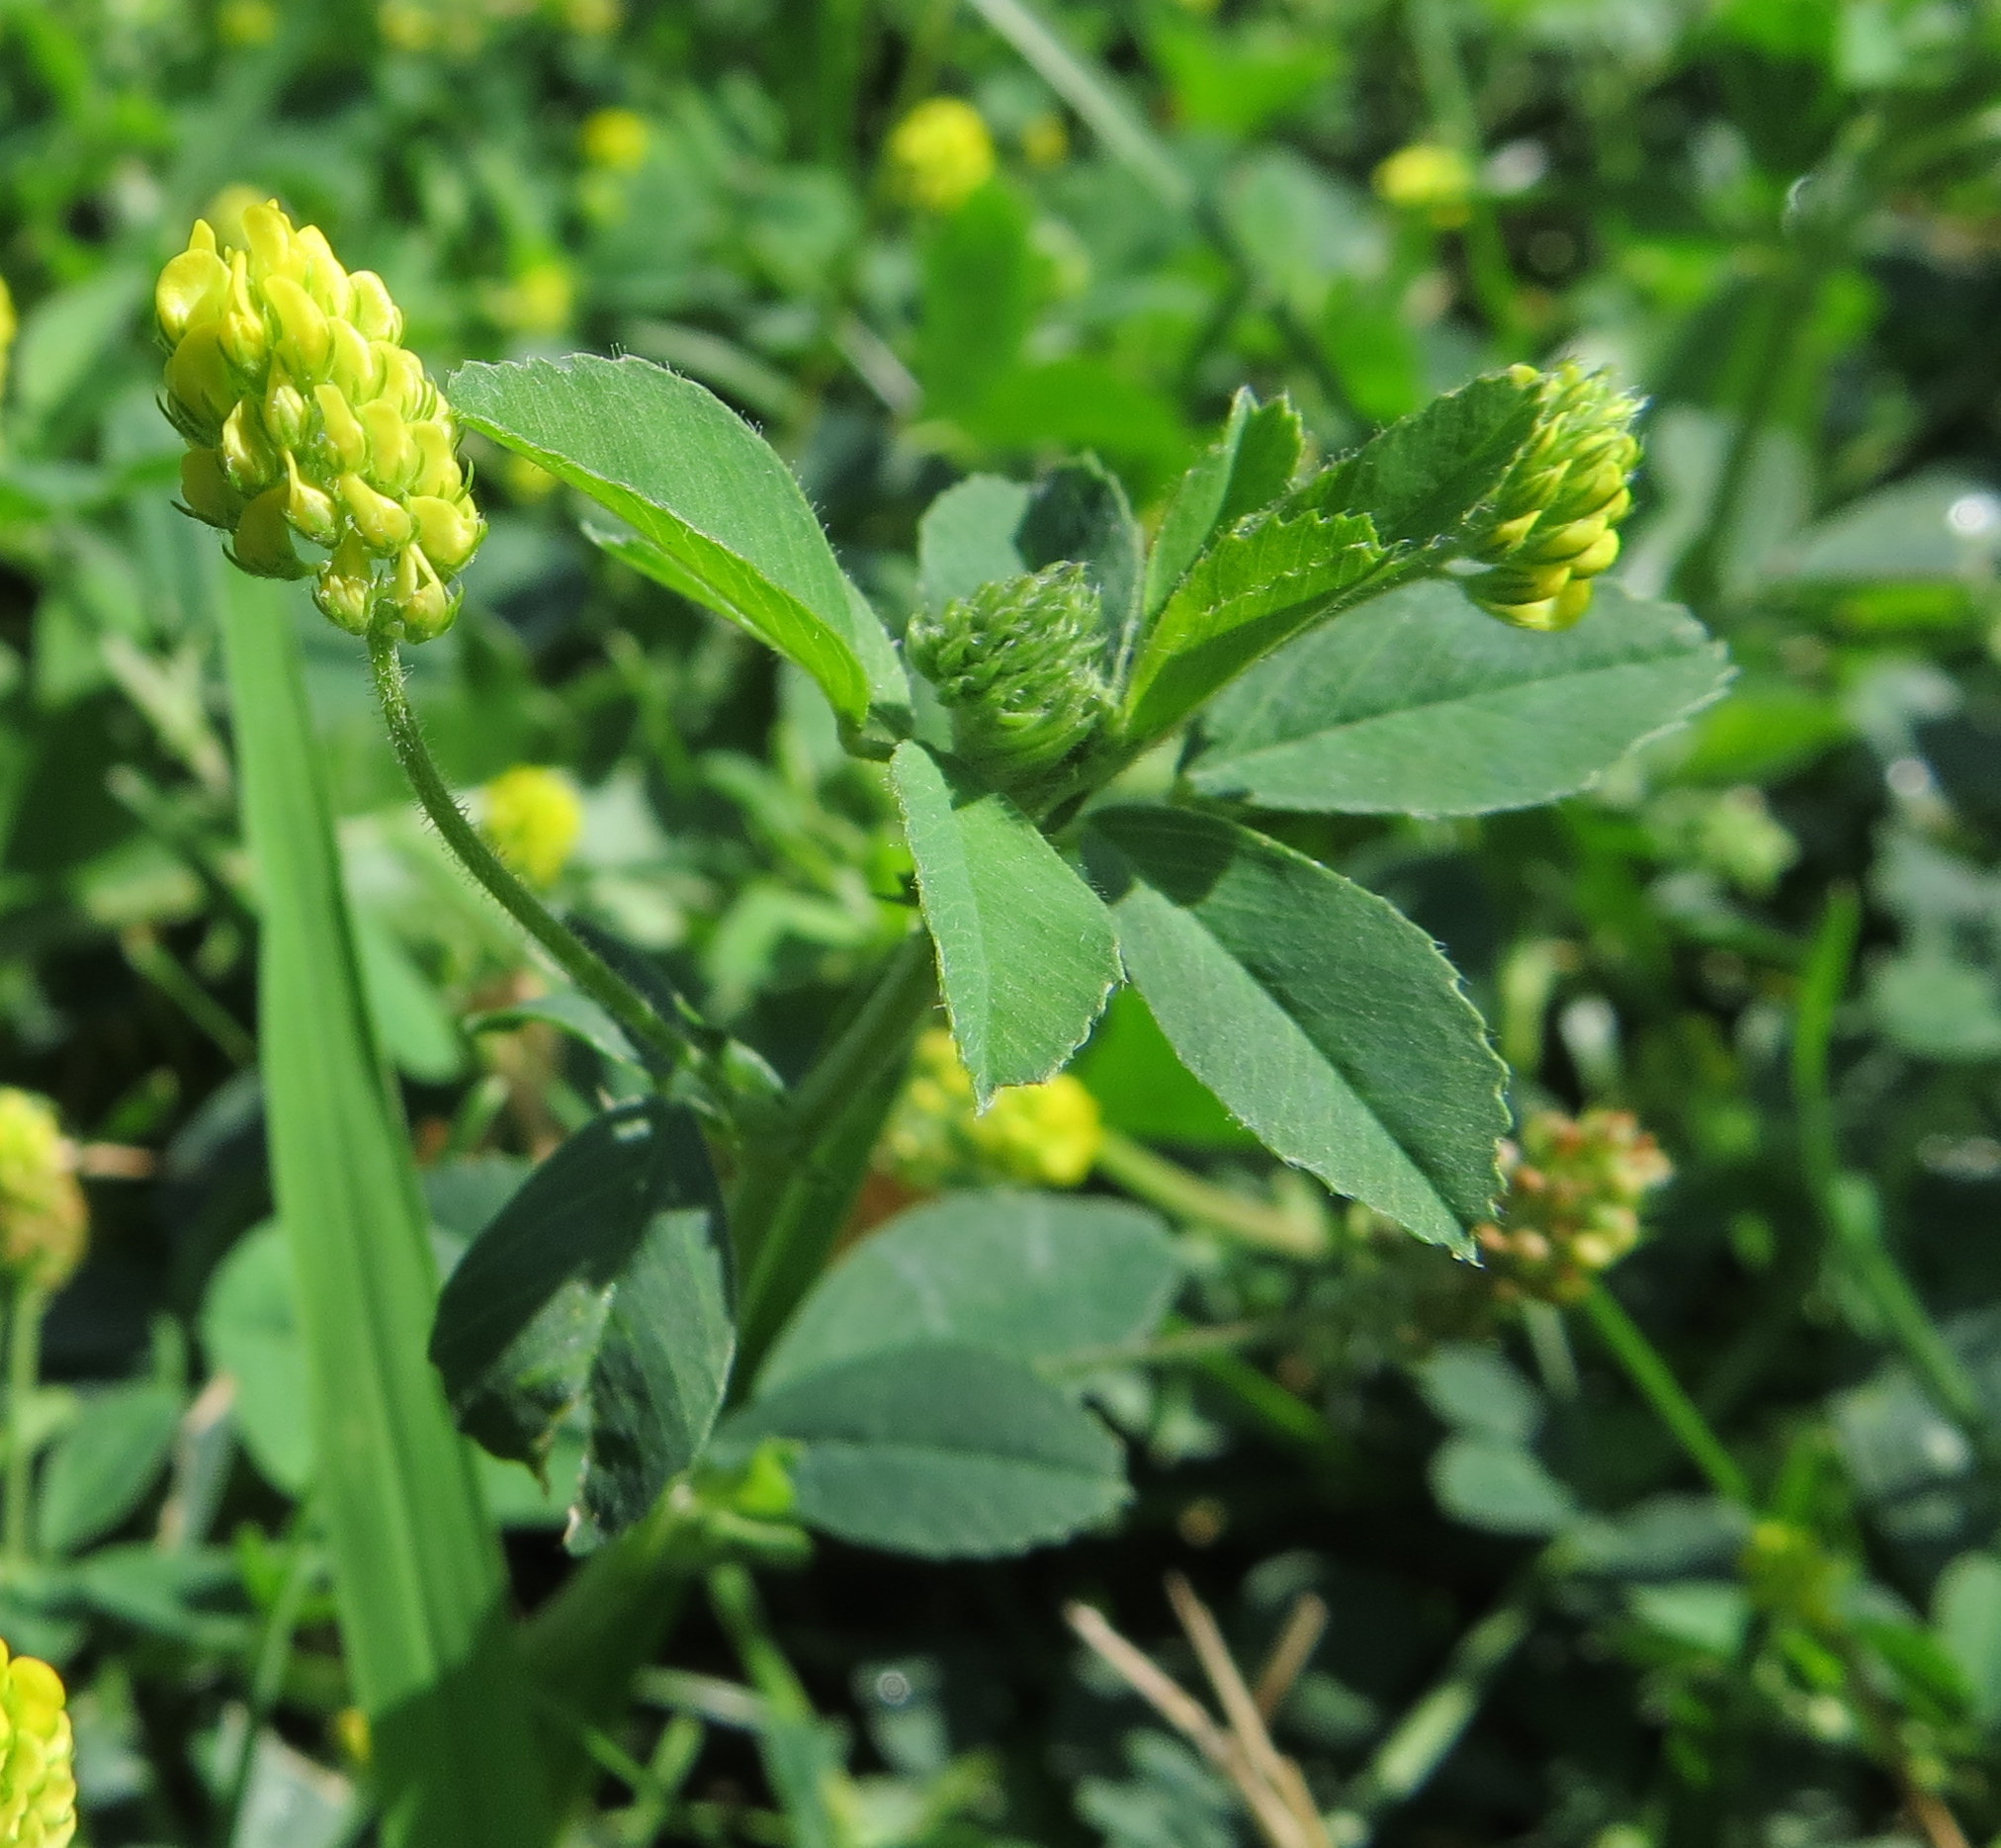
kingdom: Plantae
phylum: Tracheophyta
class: Magnoliopsida
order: Fabales
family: Fabaceae
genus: Medicago
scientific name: Medicago lupulina
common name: Black medick
